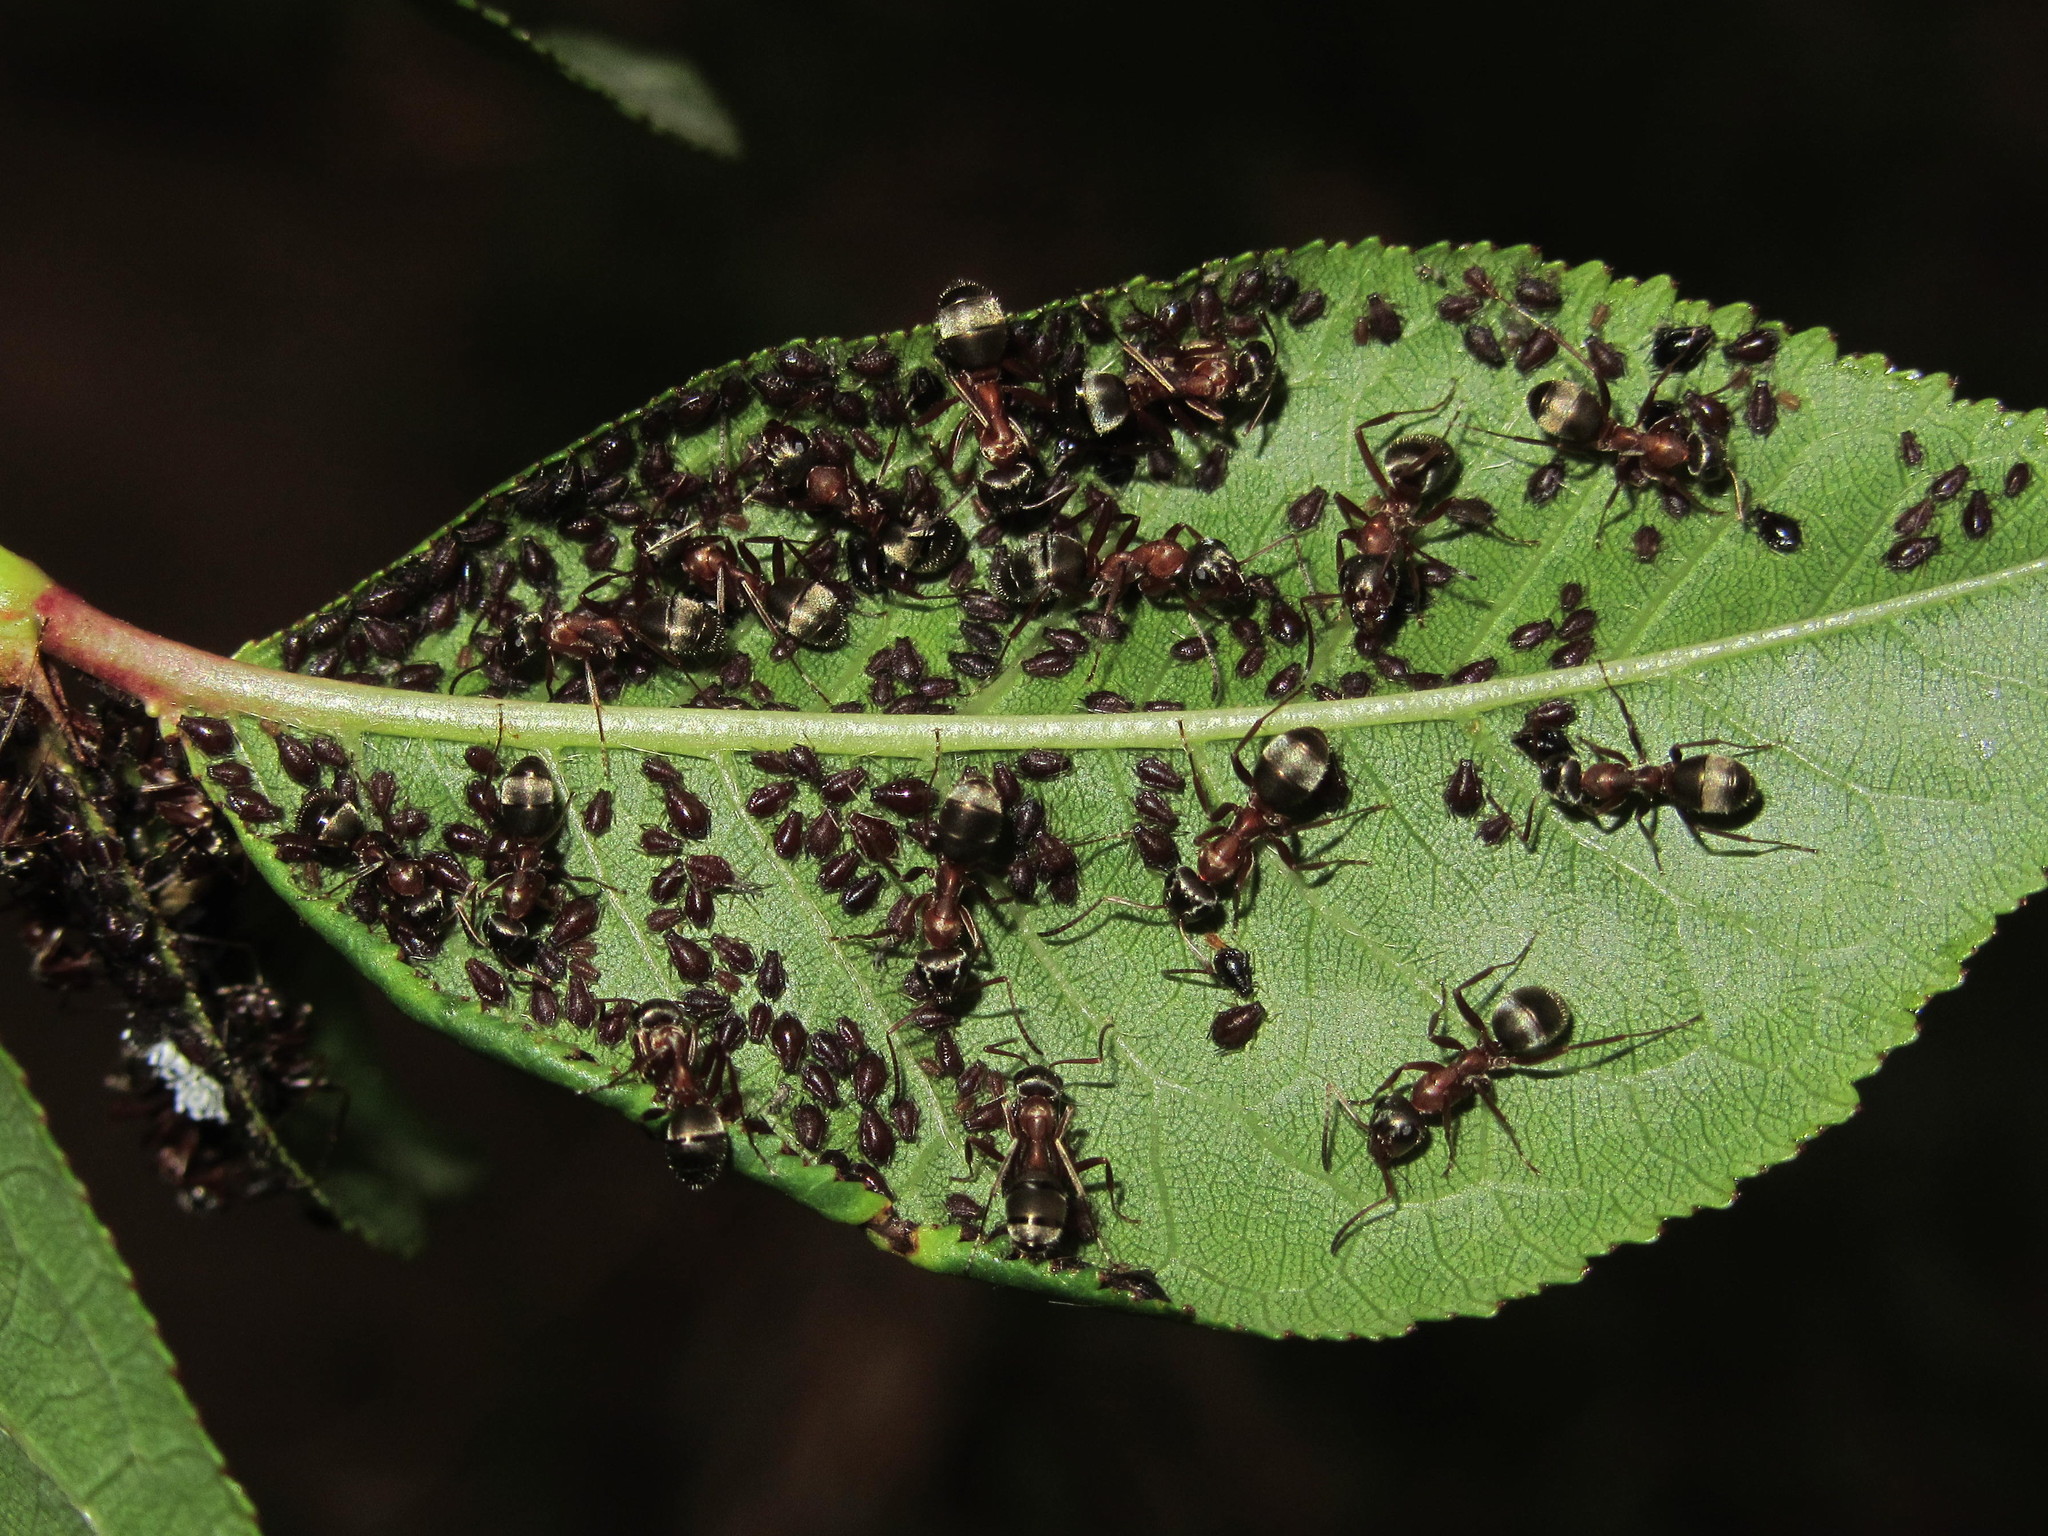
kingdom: Animalia
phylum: Arthropoda
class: Insecta
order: Hymenoptera
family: Formicidae
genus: Formica
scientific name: Formica cinerea
